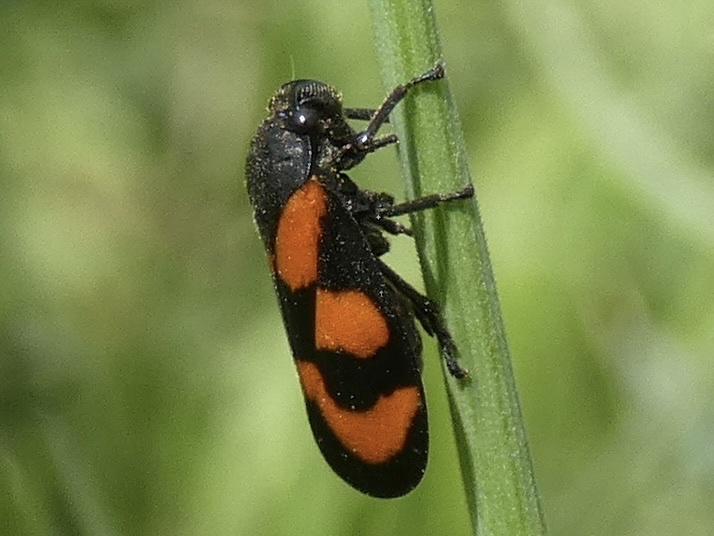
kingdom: Animalia
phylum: Arthropoda
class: Insecta
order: Hemiptera
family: Cercopidae
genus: Cercopis
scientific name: Cercopis vulnerata
